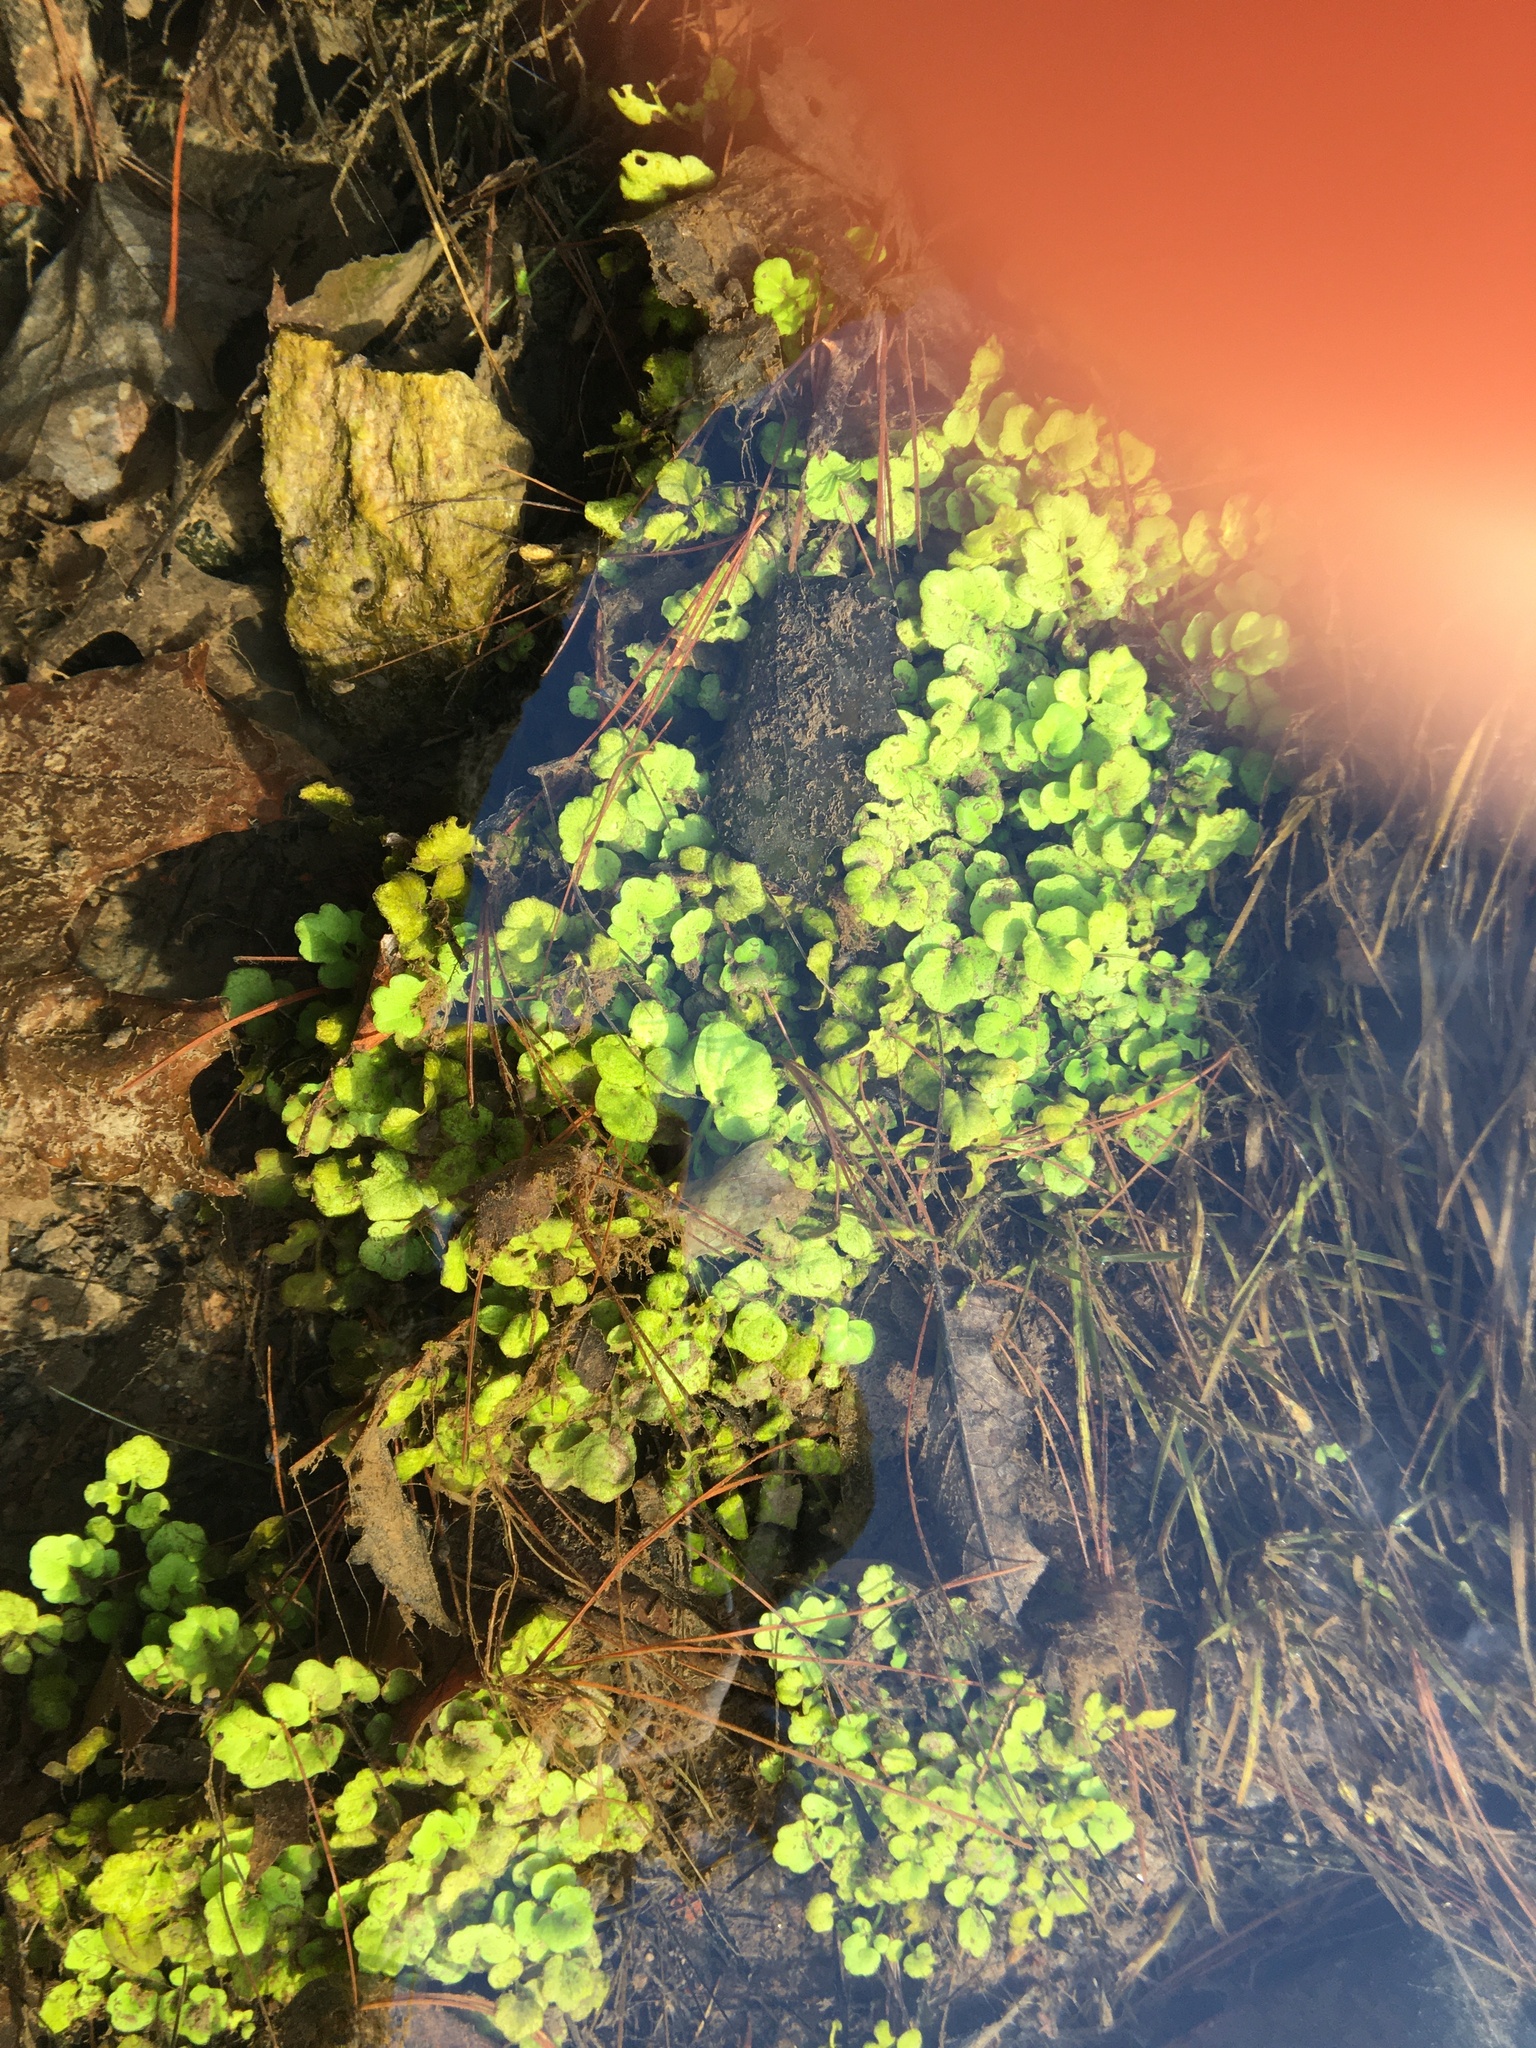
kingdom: Plantae
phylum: Tracheophyta
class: Magnoliopsida
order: Brassicales
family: Brassicaceae
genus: Cardamine
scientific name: Cardamine longii
